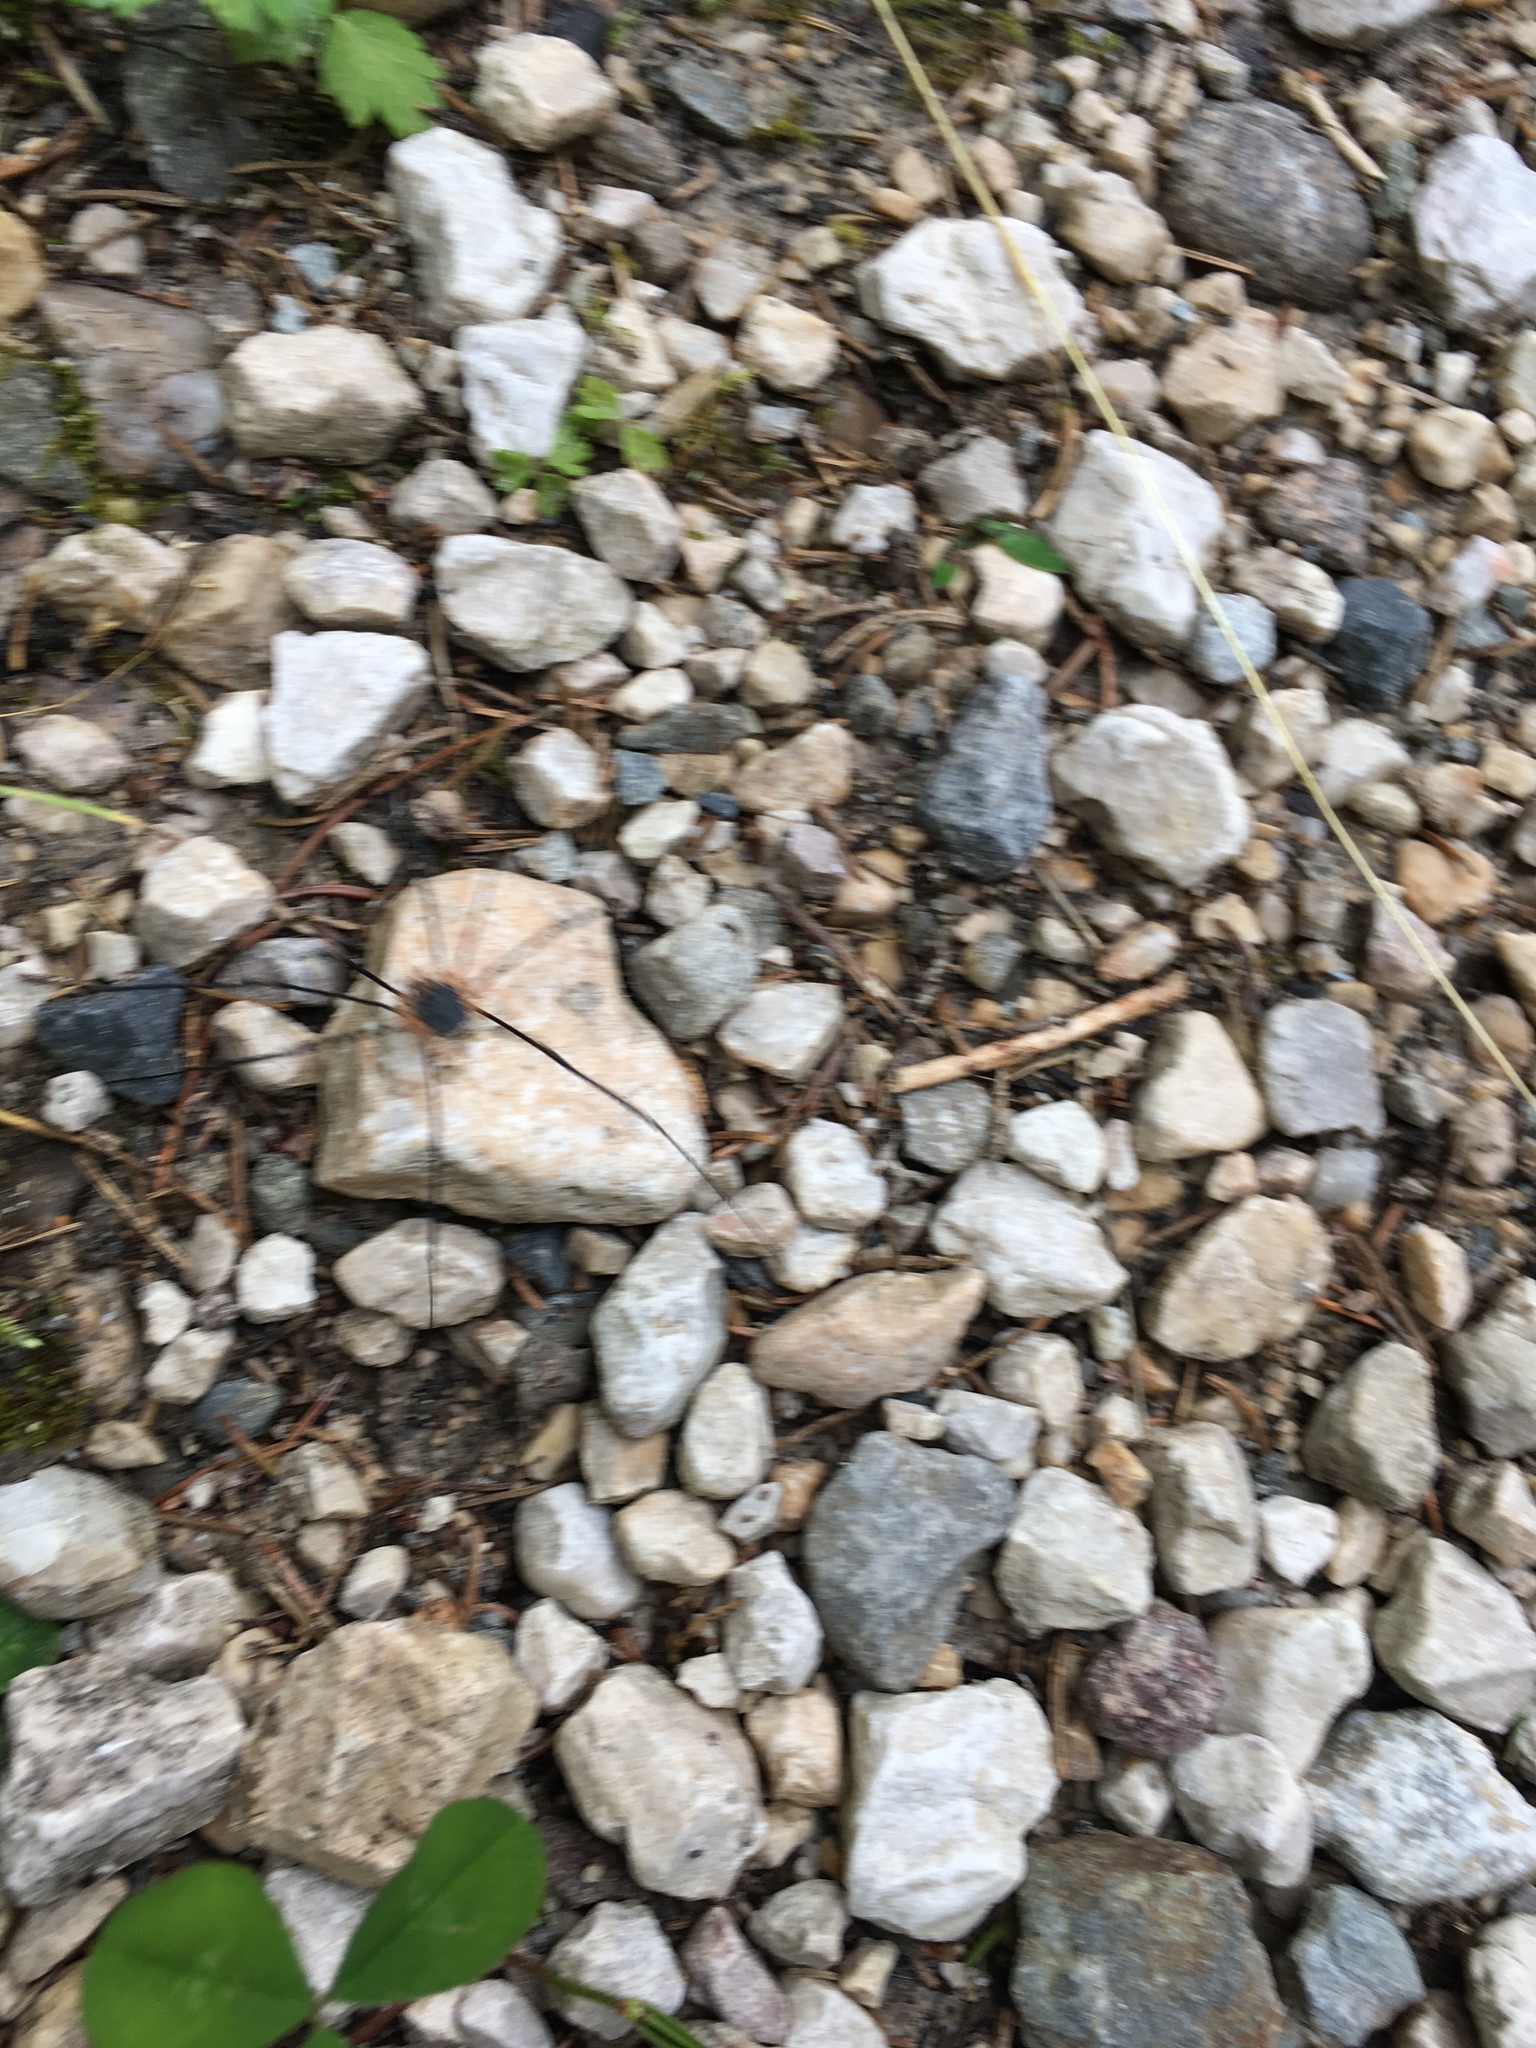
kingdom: Animalia
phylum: Arthropoda
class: Arachnida
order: Opiliones
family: Sclerosomatidae
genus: Gyas
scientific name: Gyas annulatus
